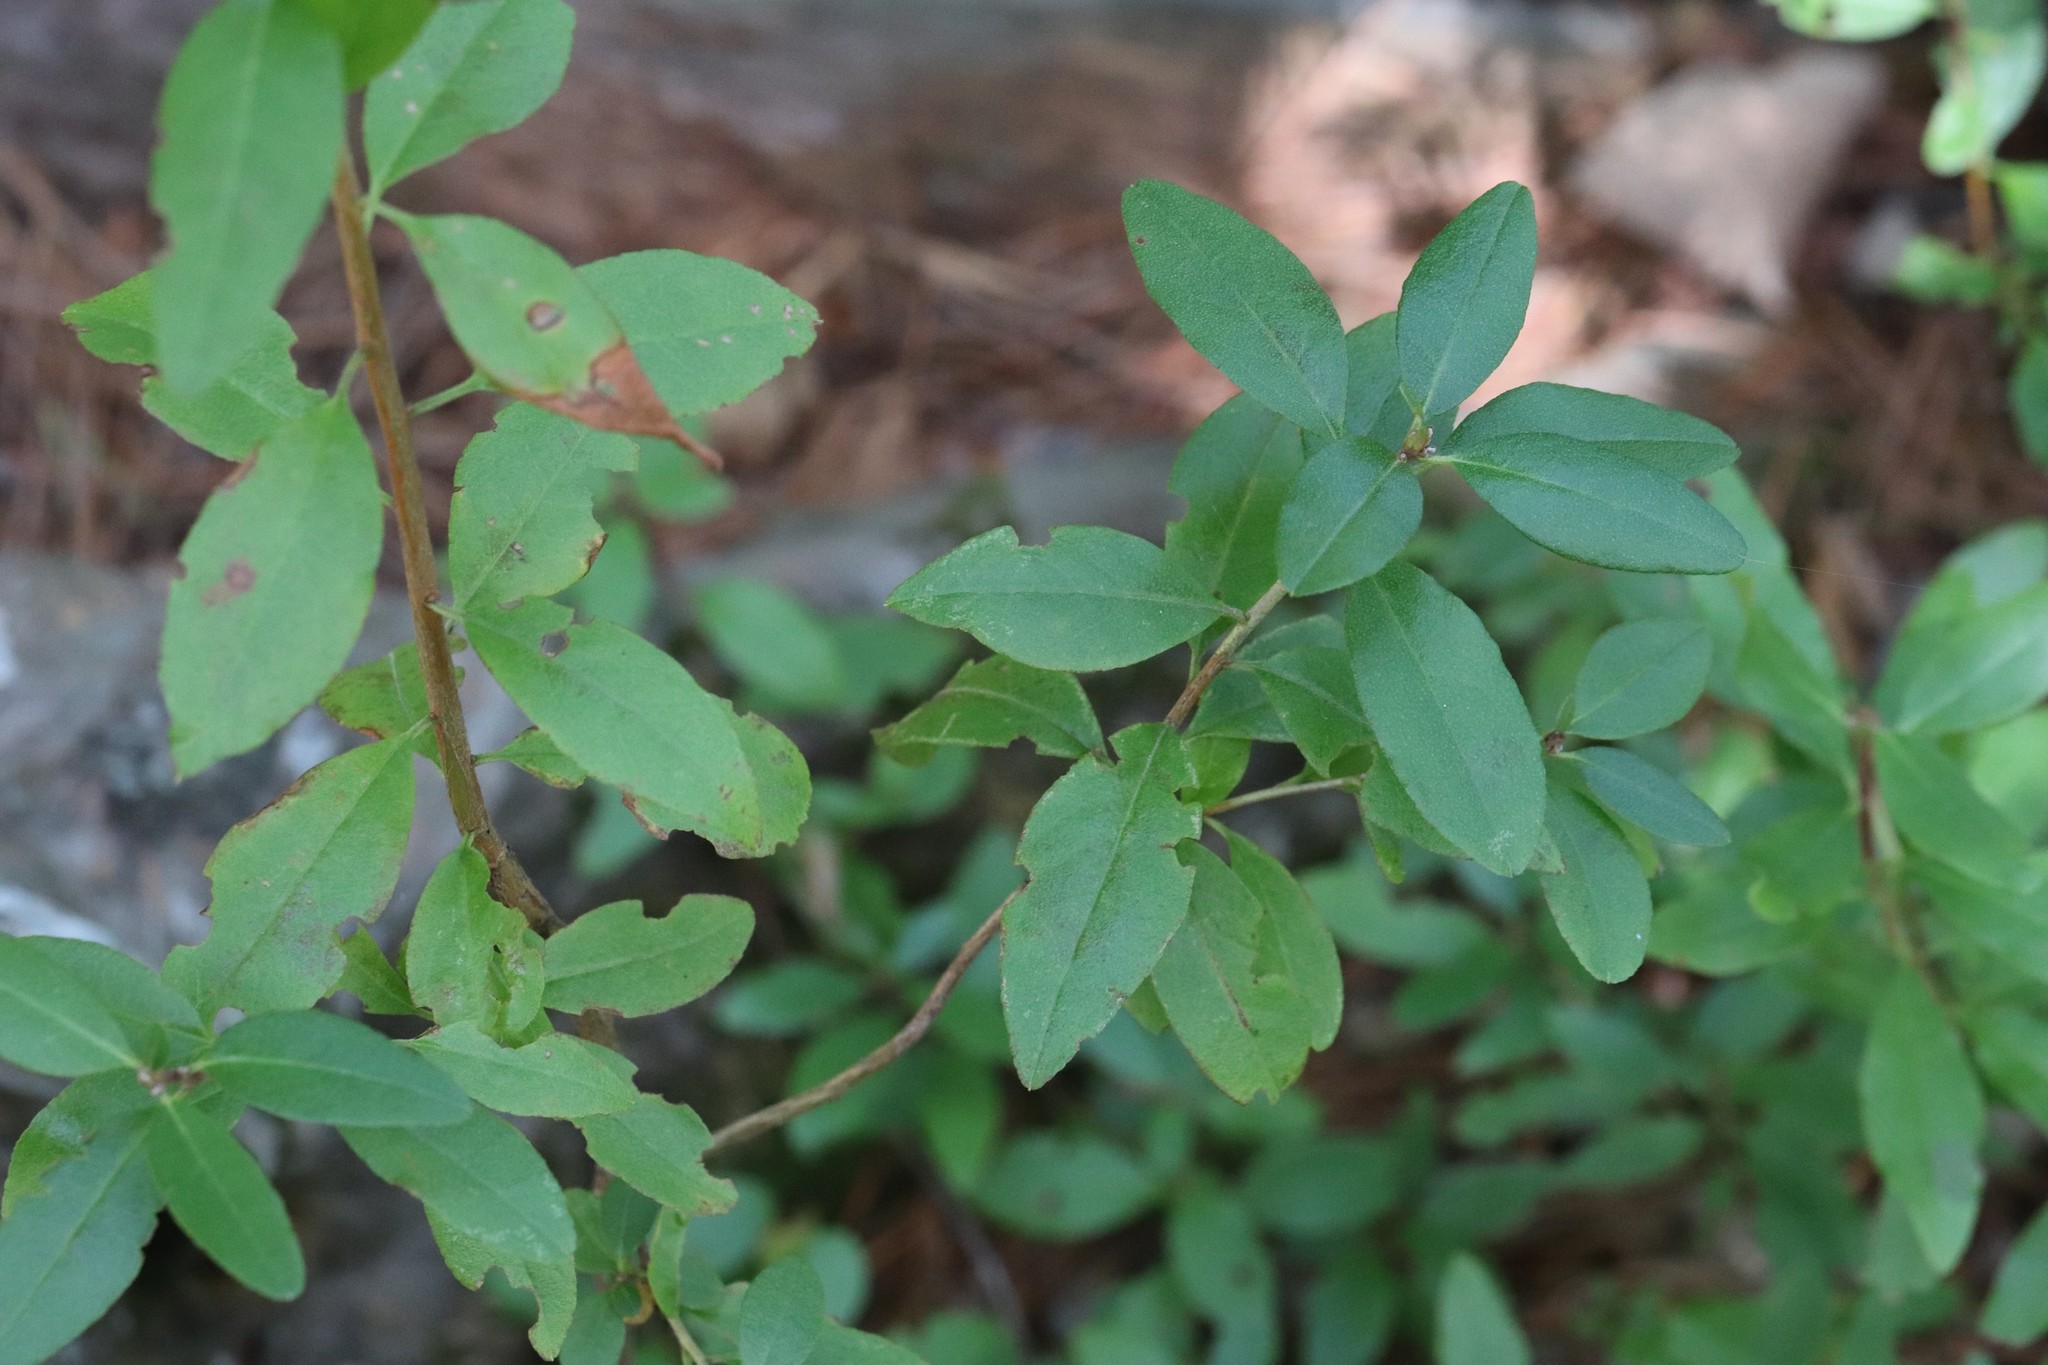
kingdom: Plantae
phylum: Tracheophyta
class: Magnoliopsida
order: Ericales
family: Ericaceae
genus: Rhododendron
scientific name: Rhododendron mucronulatum
